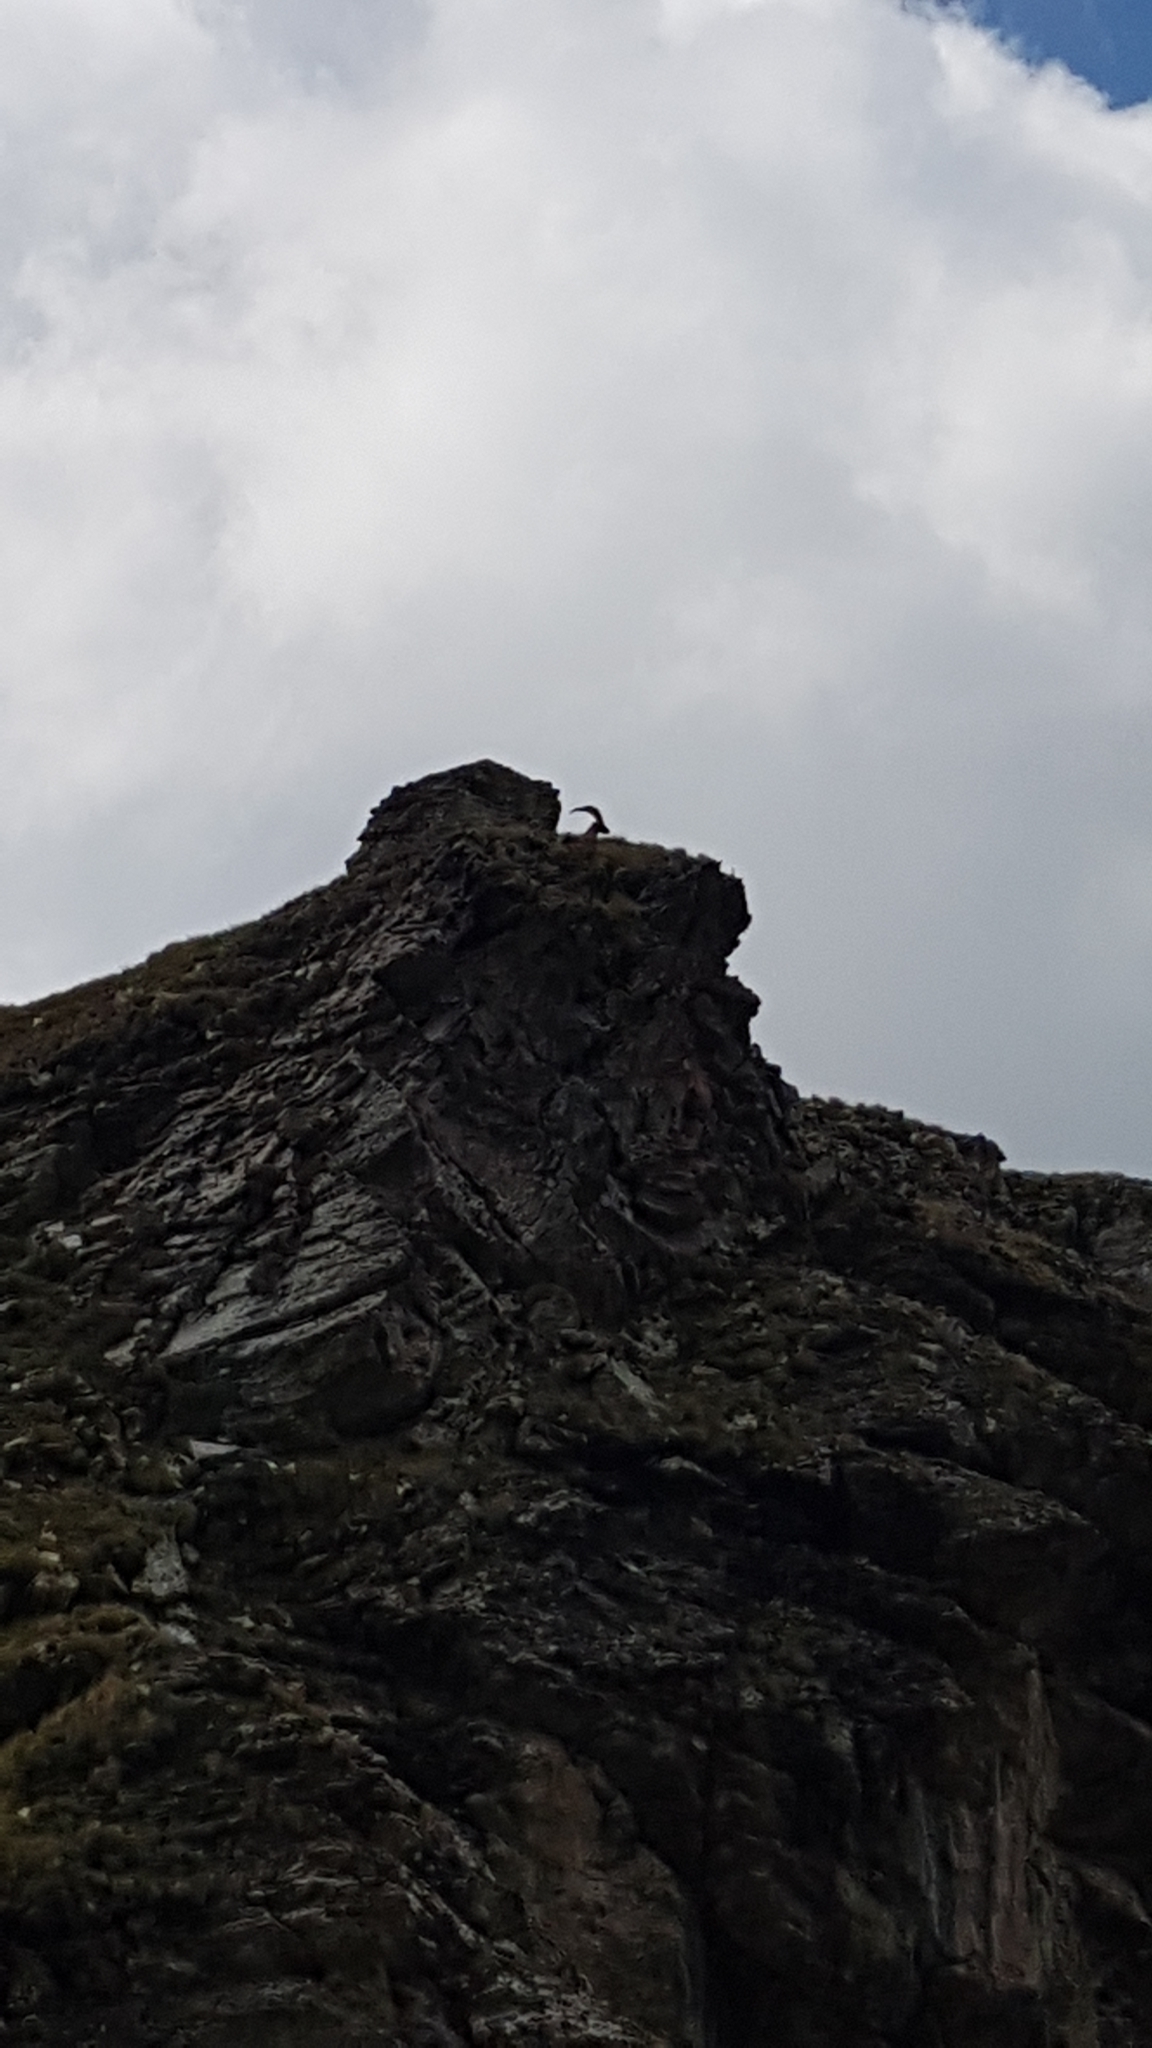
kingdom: Animalia
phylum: Chordata
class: Mammalia
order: Artiodactyla
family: Bovidae
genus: Capra
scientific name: Capra ibex
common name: Alpine ibex
